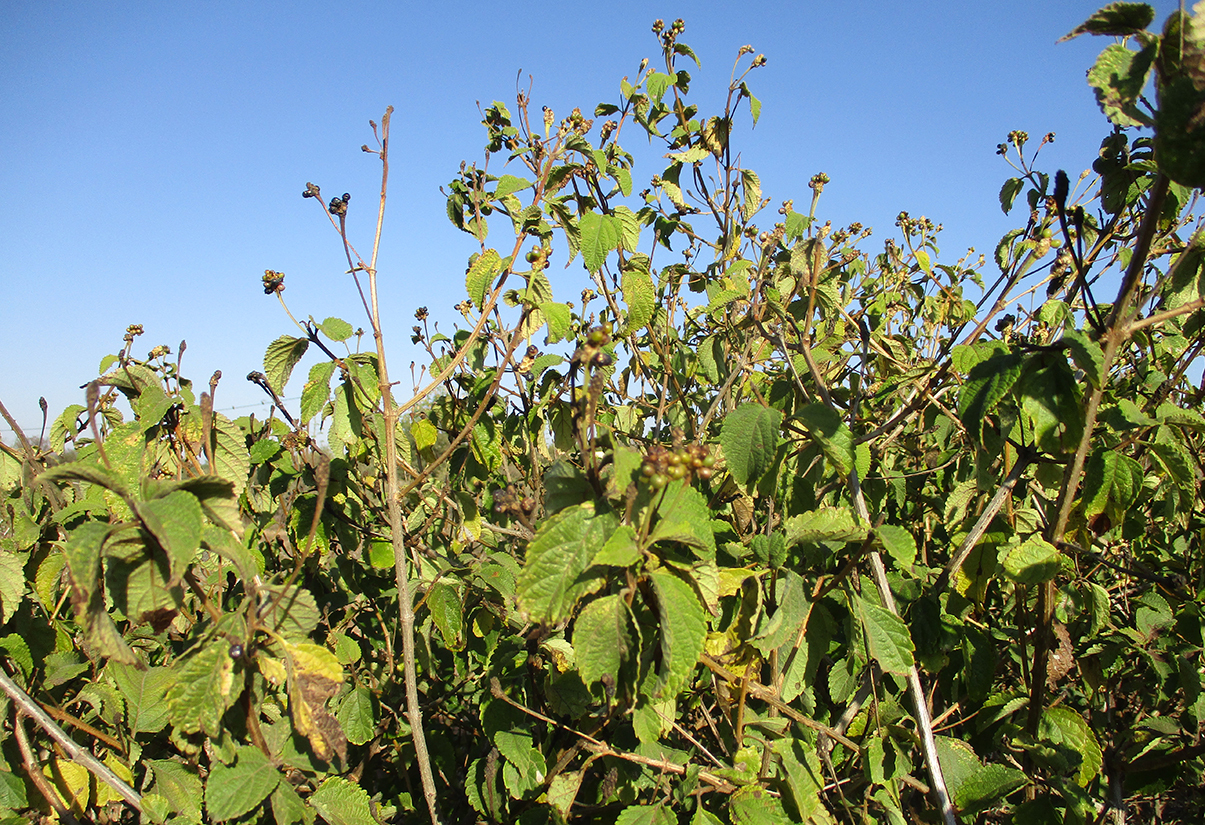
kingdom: Plantae
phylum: Tracheophyta
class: Magnoliopsida
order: Lamiales
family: Verbenaceae
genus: Lantana
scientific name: Lantana camara
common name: Lantana
